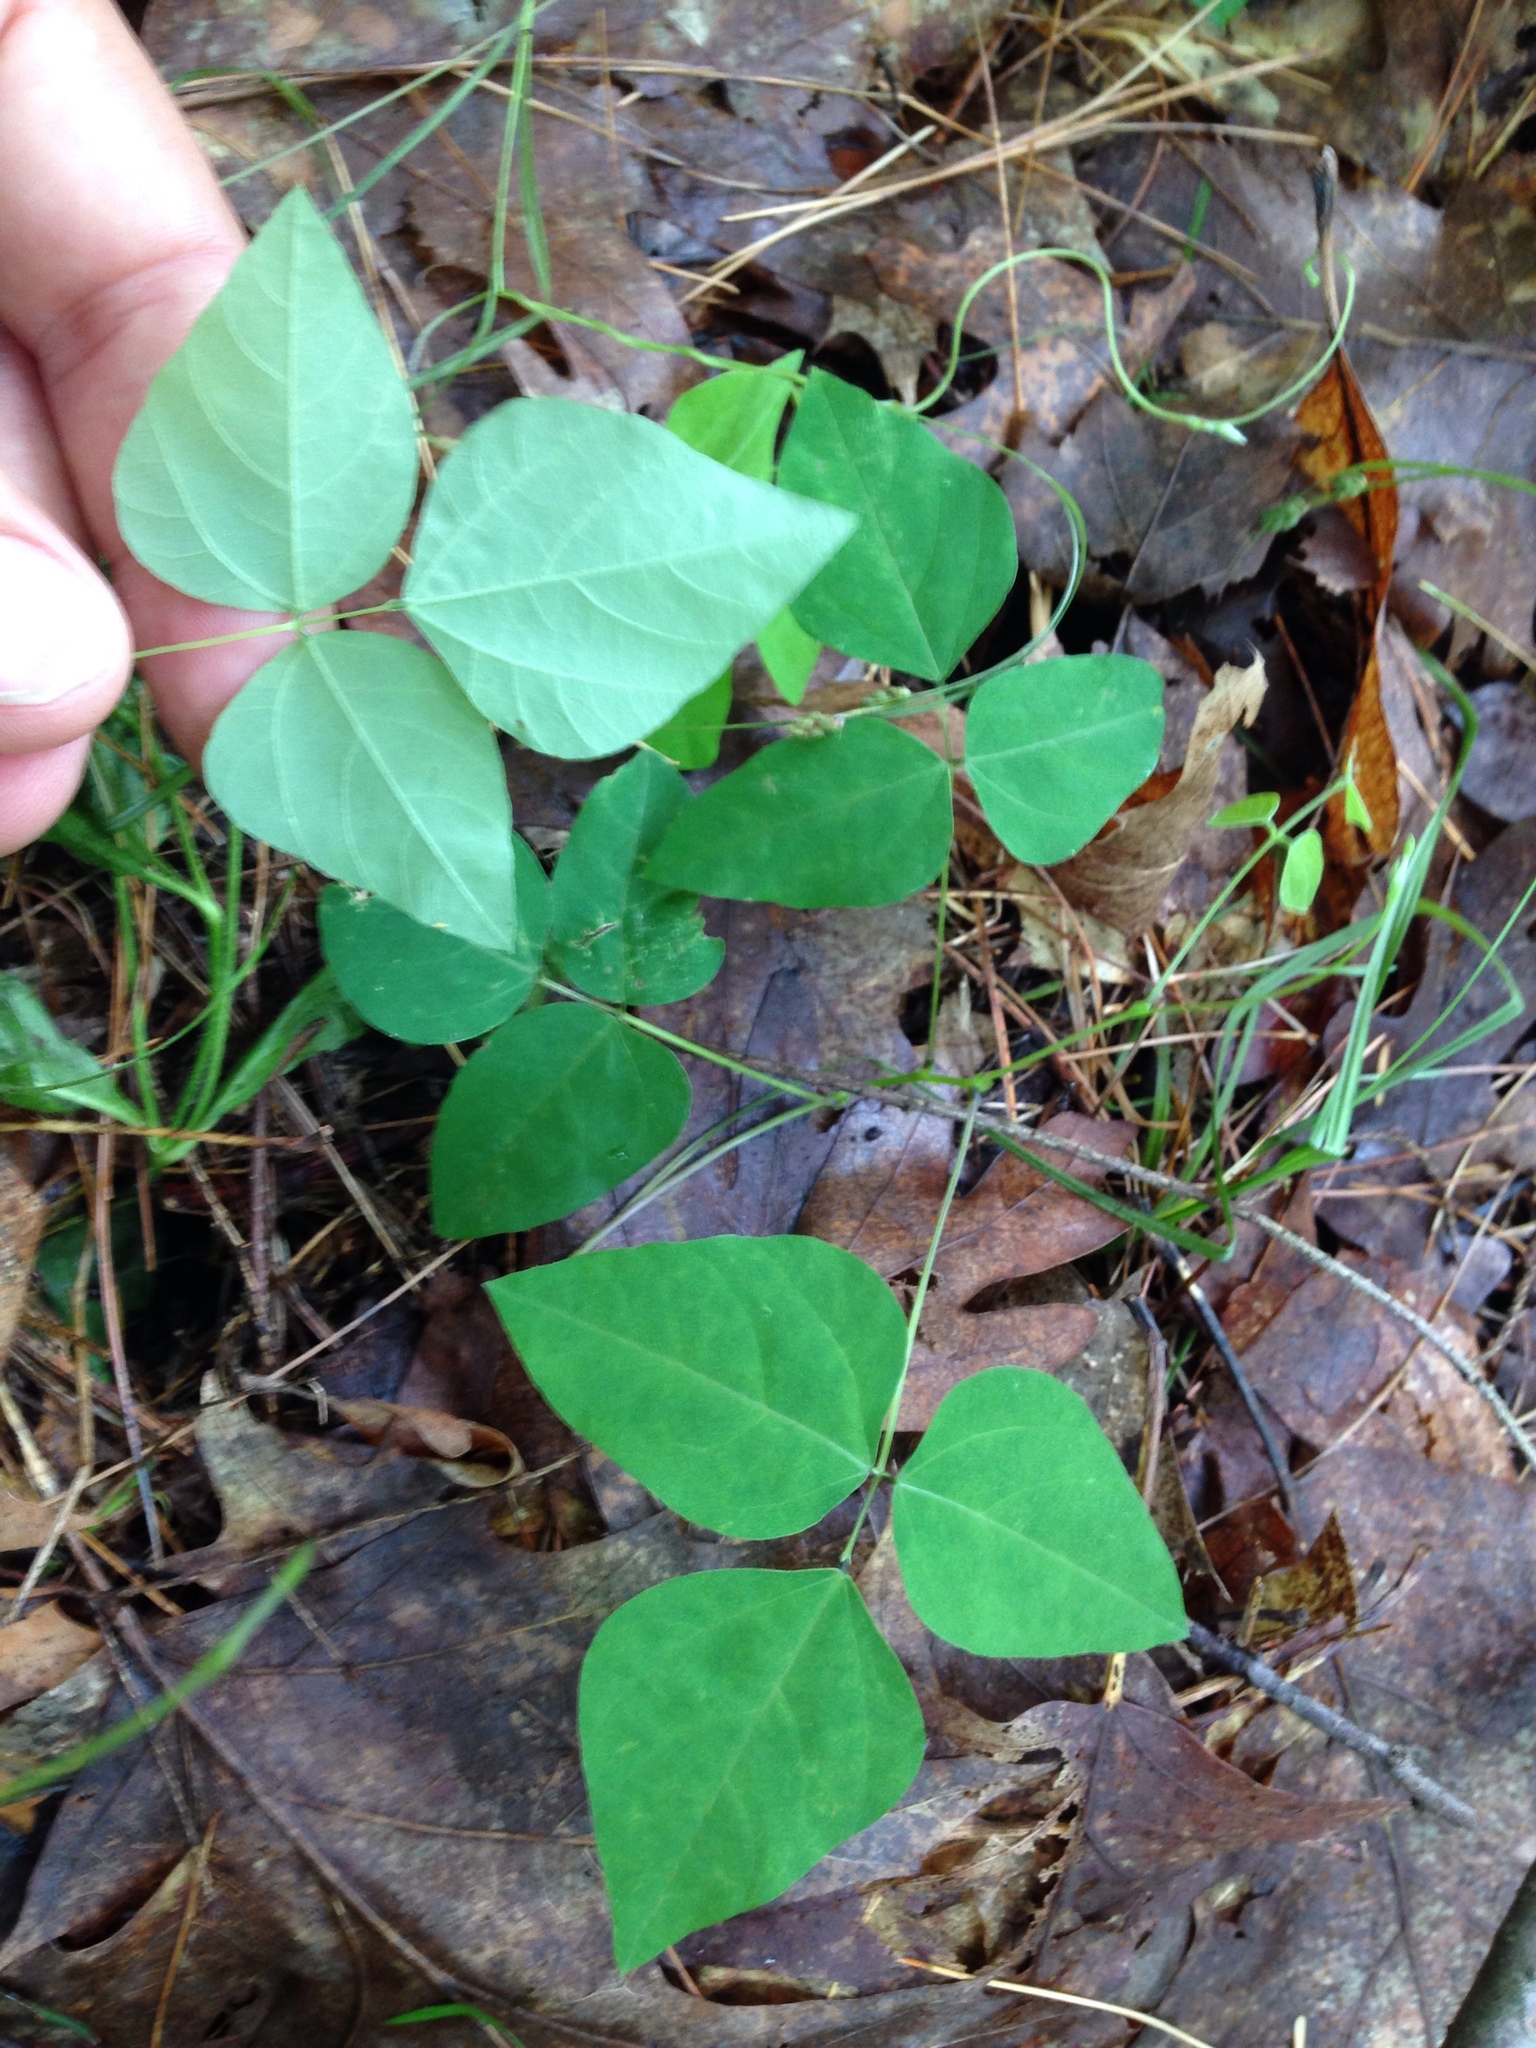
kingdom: Plantae
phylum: Tracheophyta
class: Magnoliopsida
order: Fabales
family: Fabaceae
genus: Amphicarpaea
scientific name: Amphicarpaea bracteata
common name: American hog peanut
